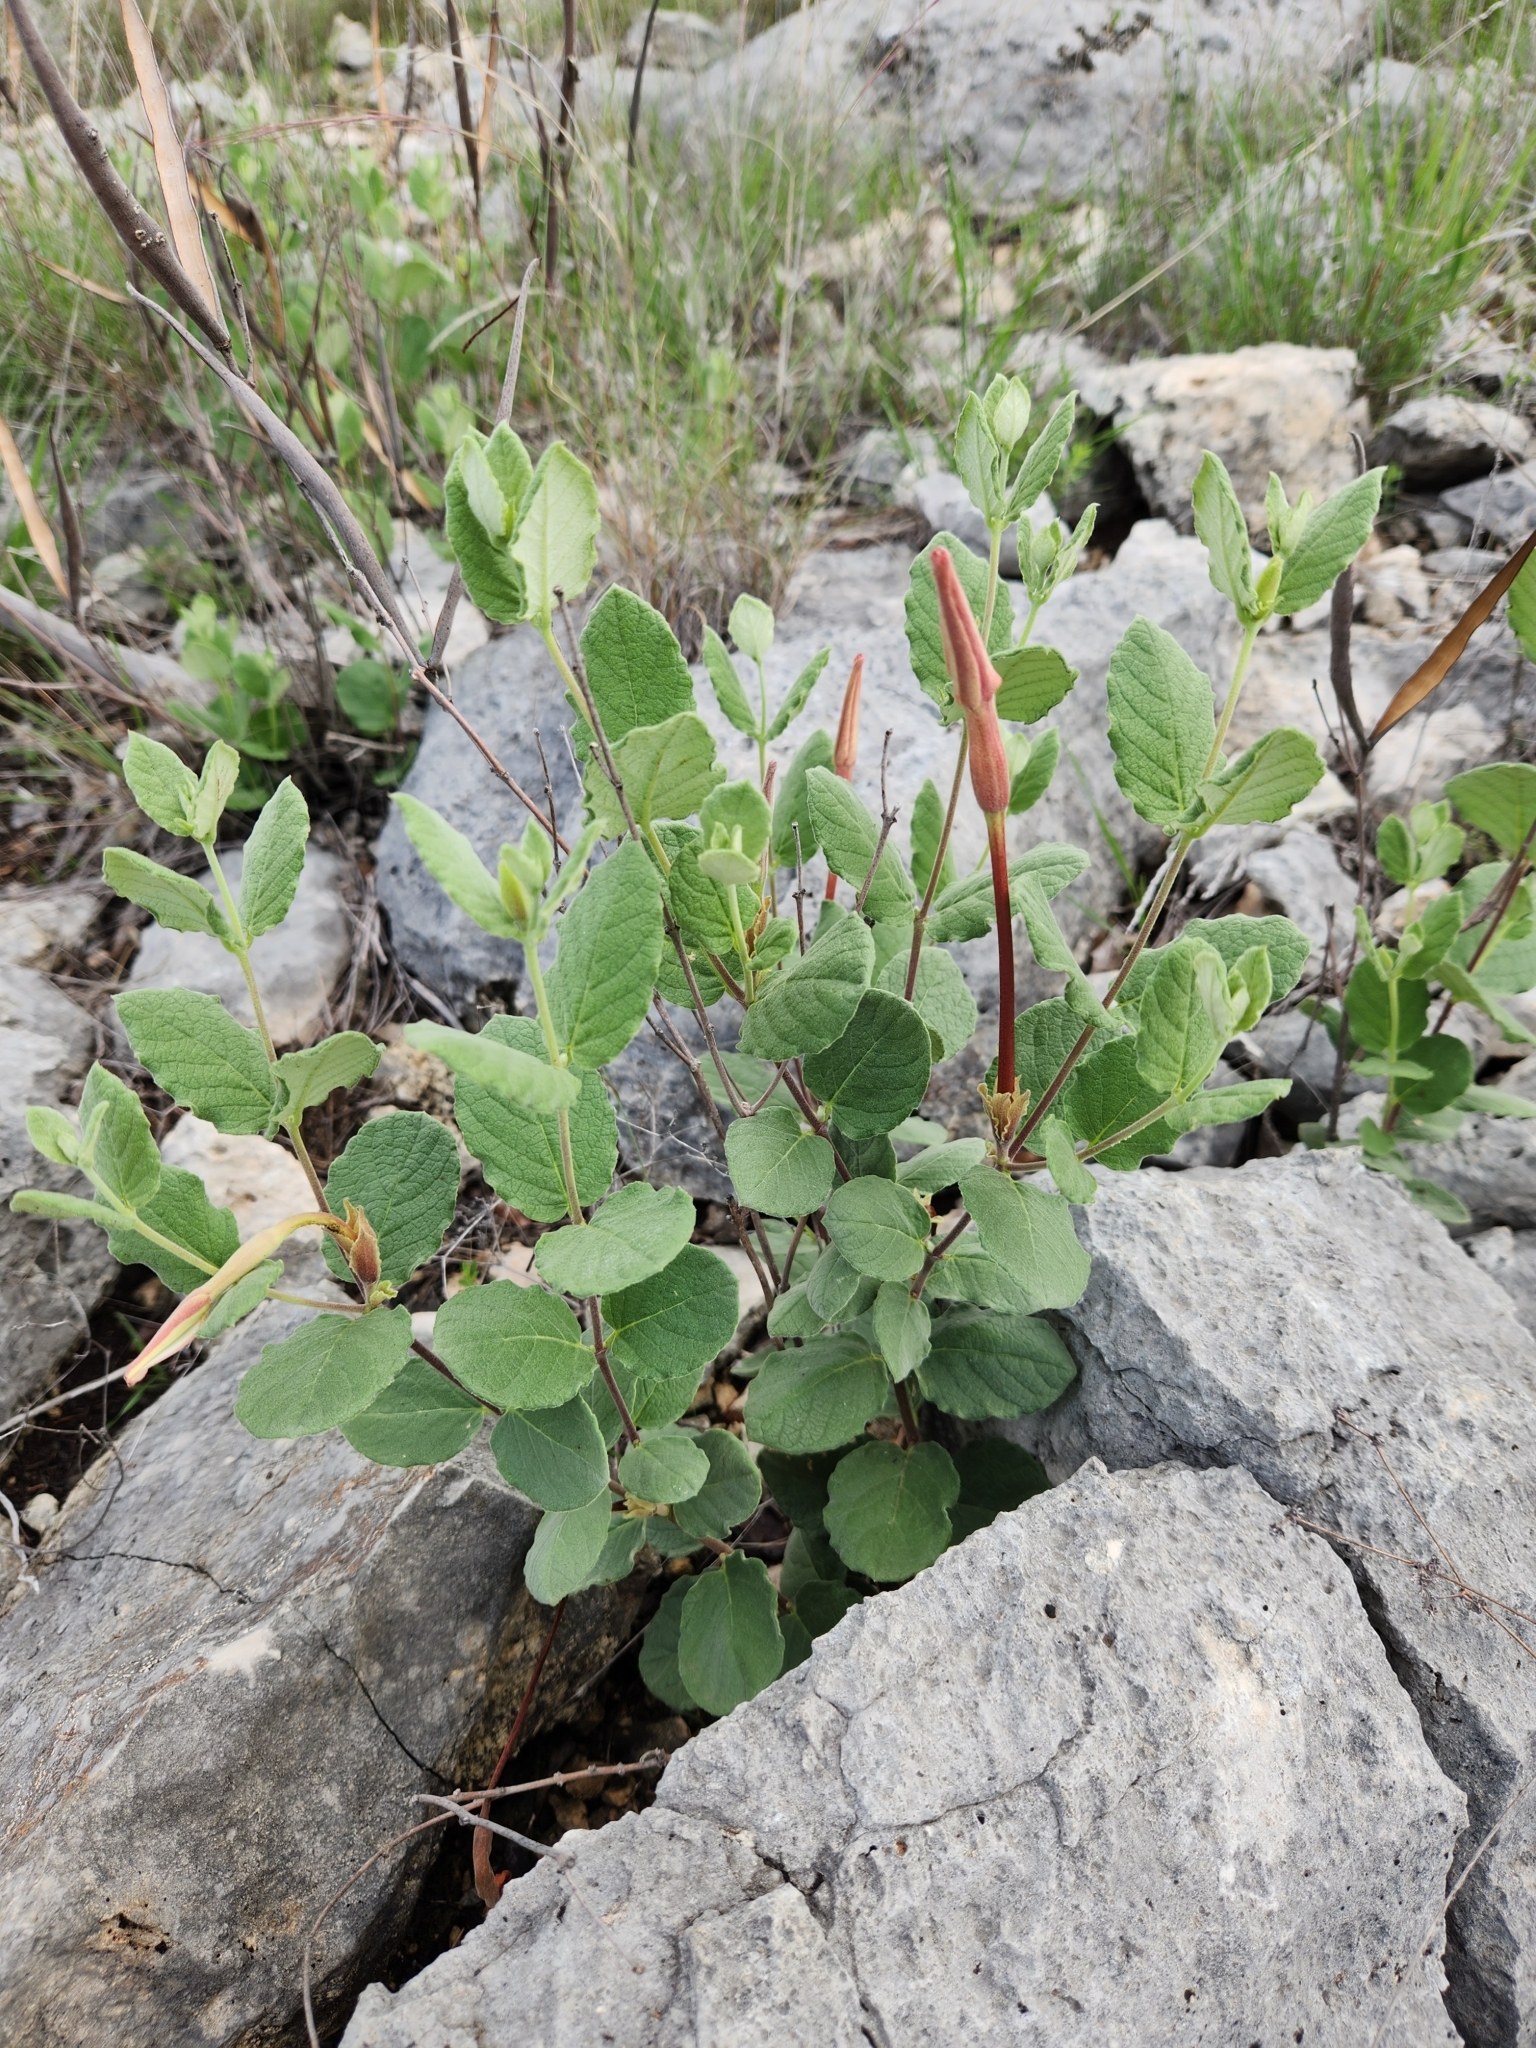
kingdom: Plantae
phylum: Tracheophyta
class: Magnoliopsida
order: Gentianales
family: Apocynaceae
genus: Mandevilla
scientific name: Mandevilla macrosiphon
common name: Plateau rocktrumpet
